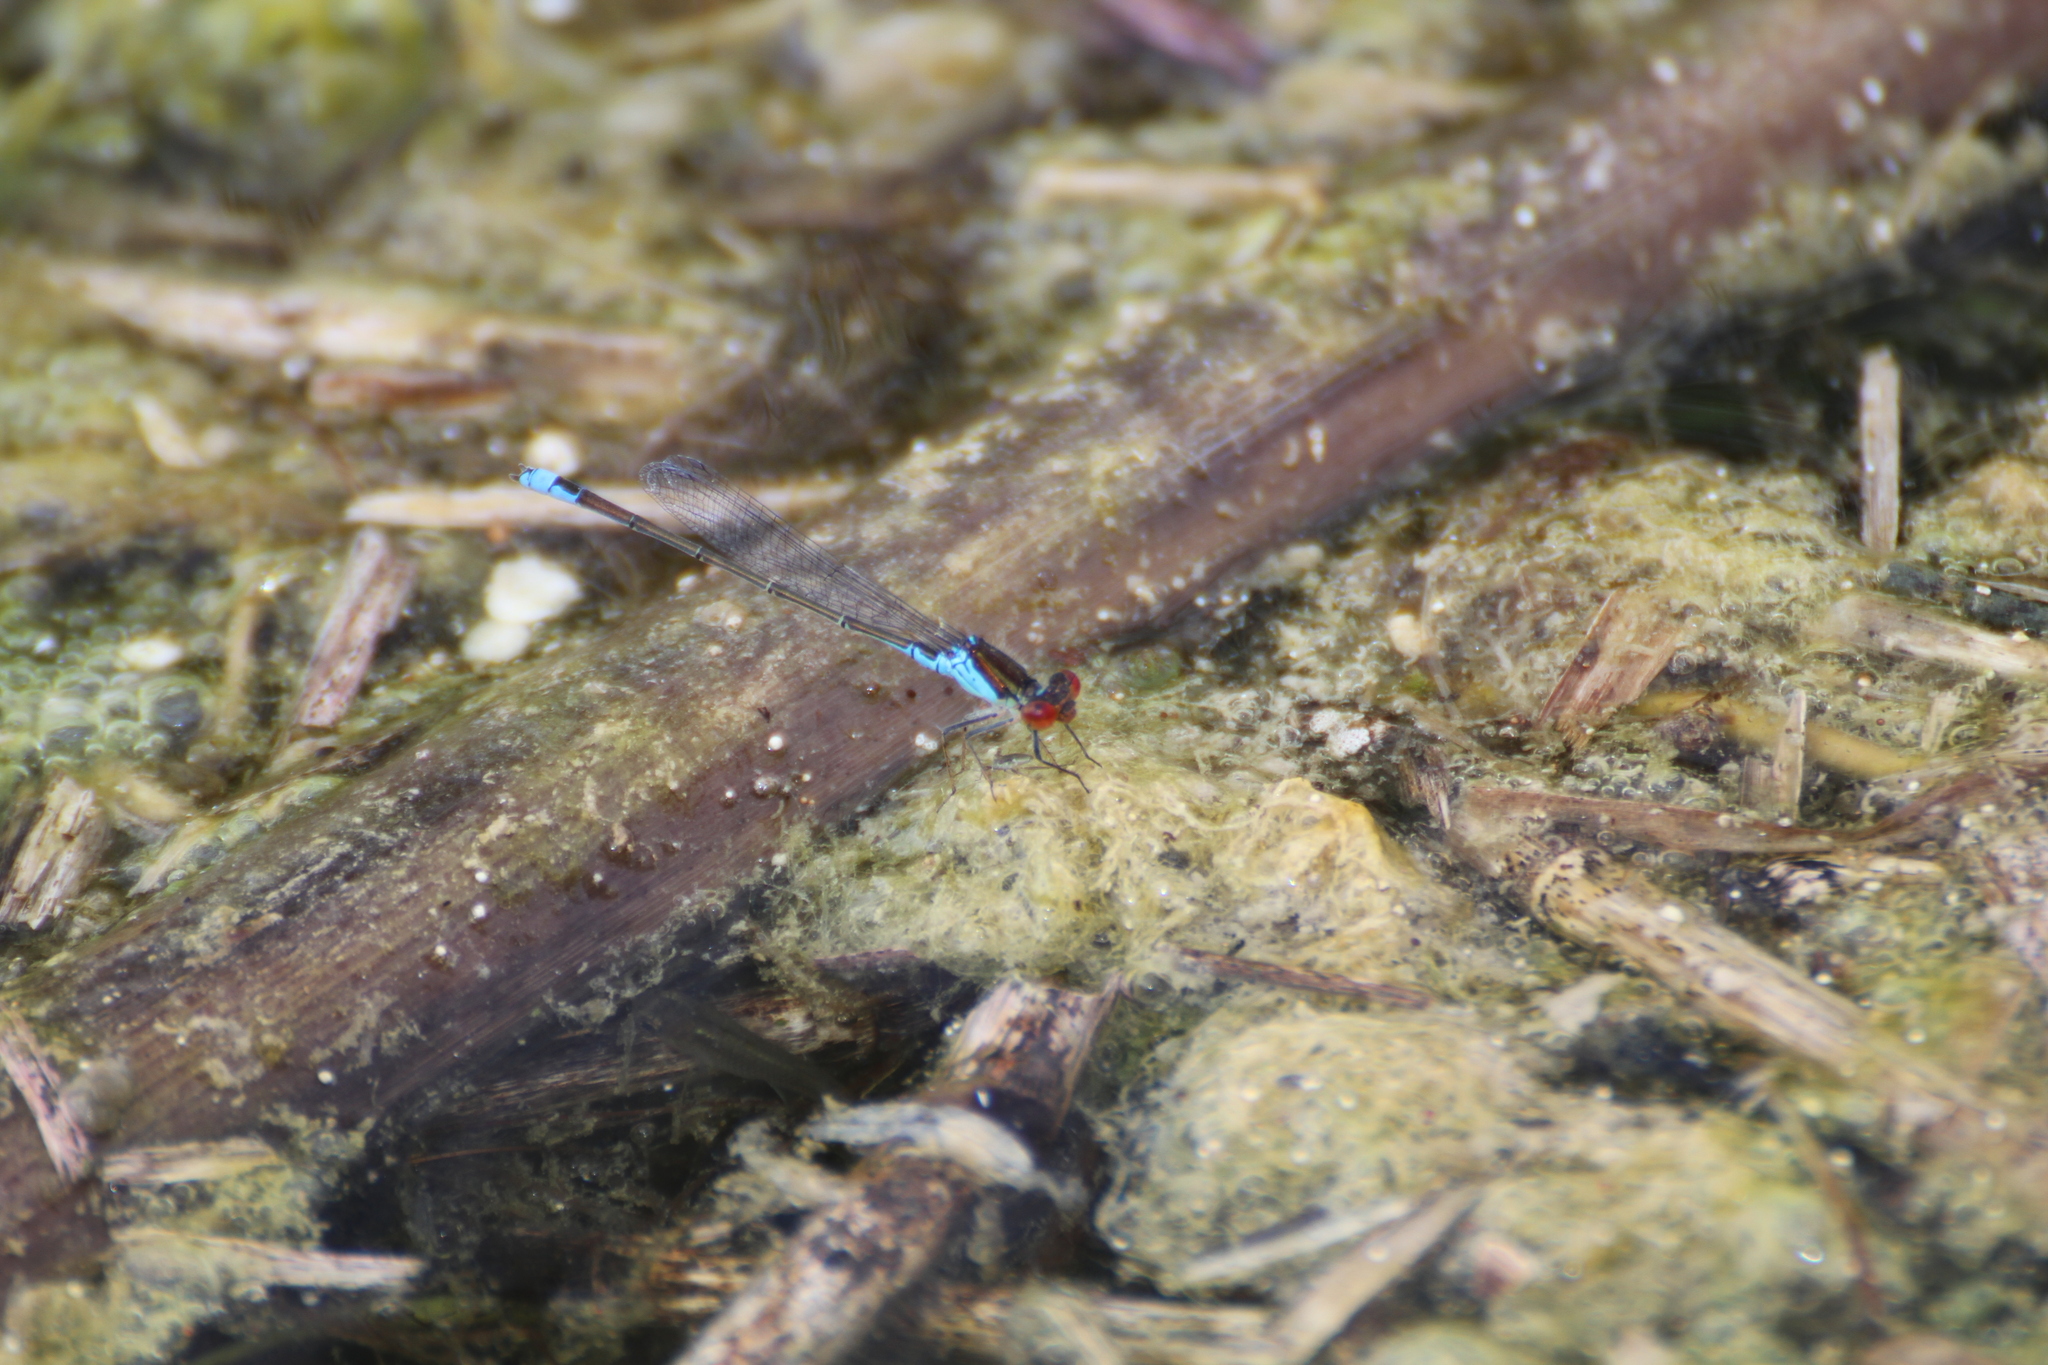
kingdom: Animalia
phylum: Arthropoda
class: Insecta
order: Odonata
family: Coenagrionidae
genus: Erythromma
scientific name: Erythromma viridulum
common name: Small red-eyed damselfly
